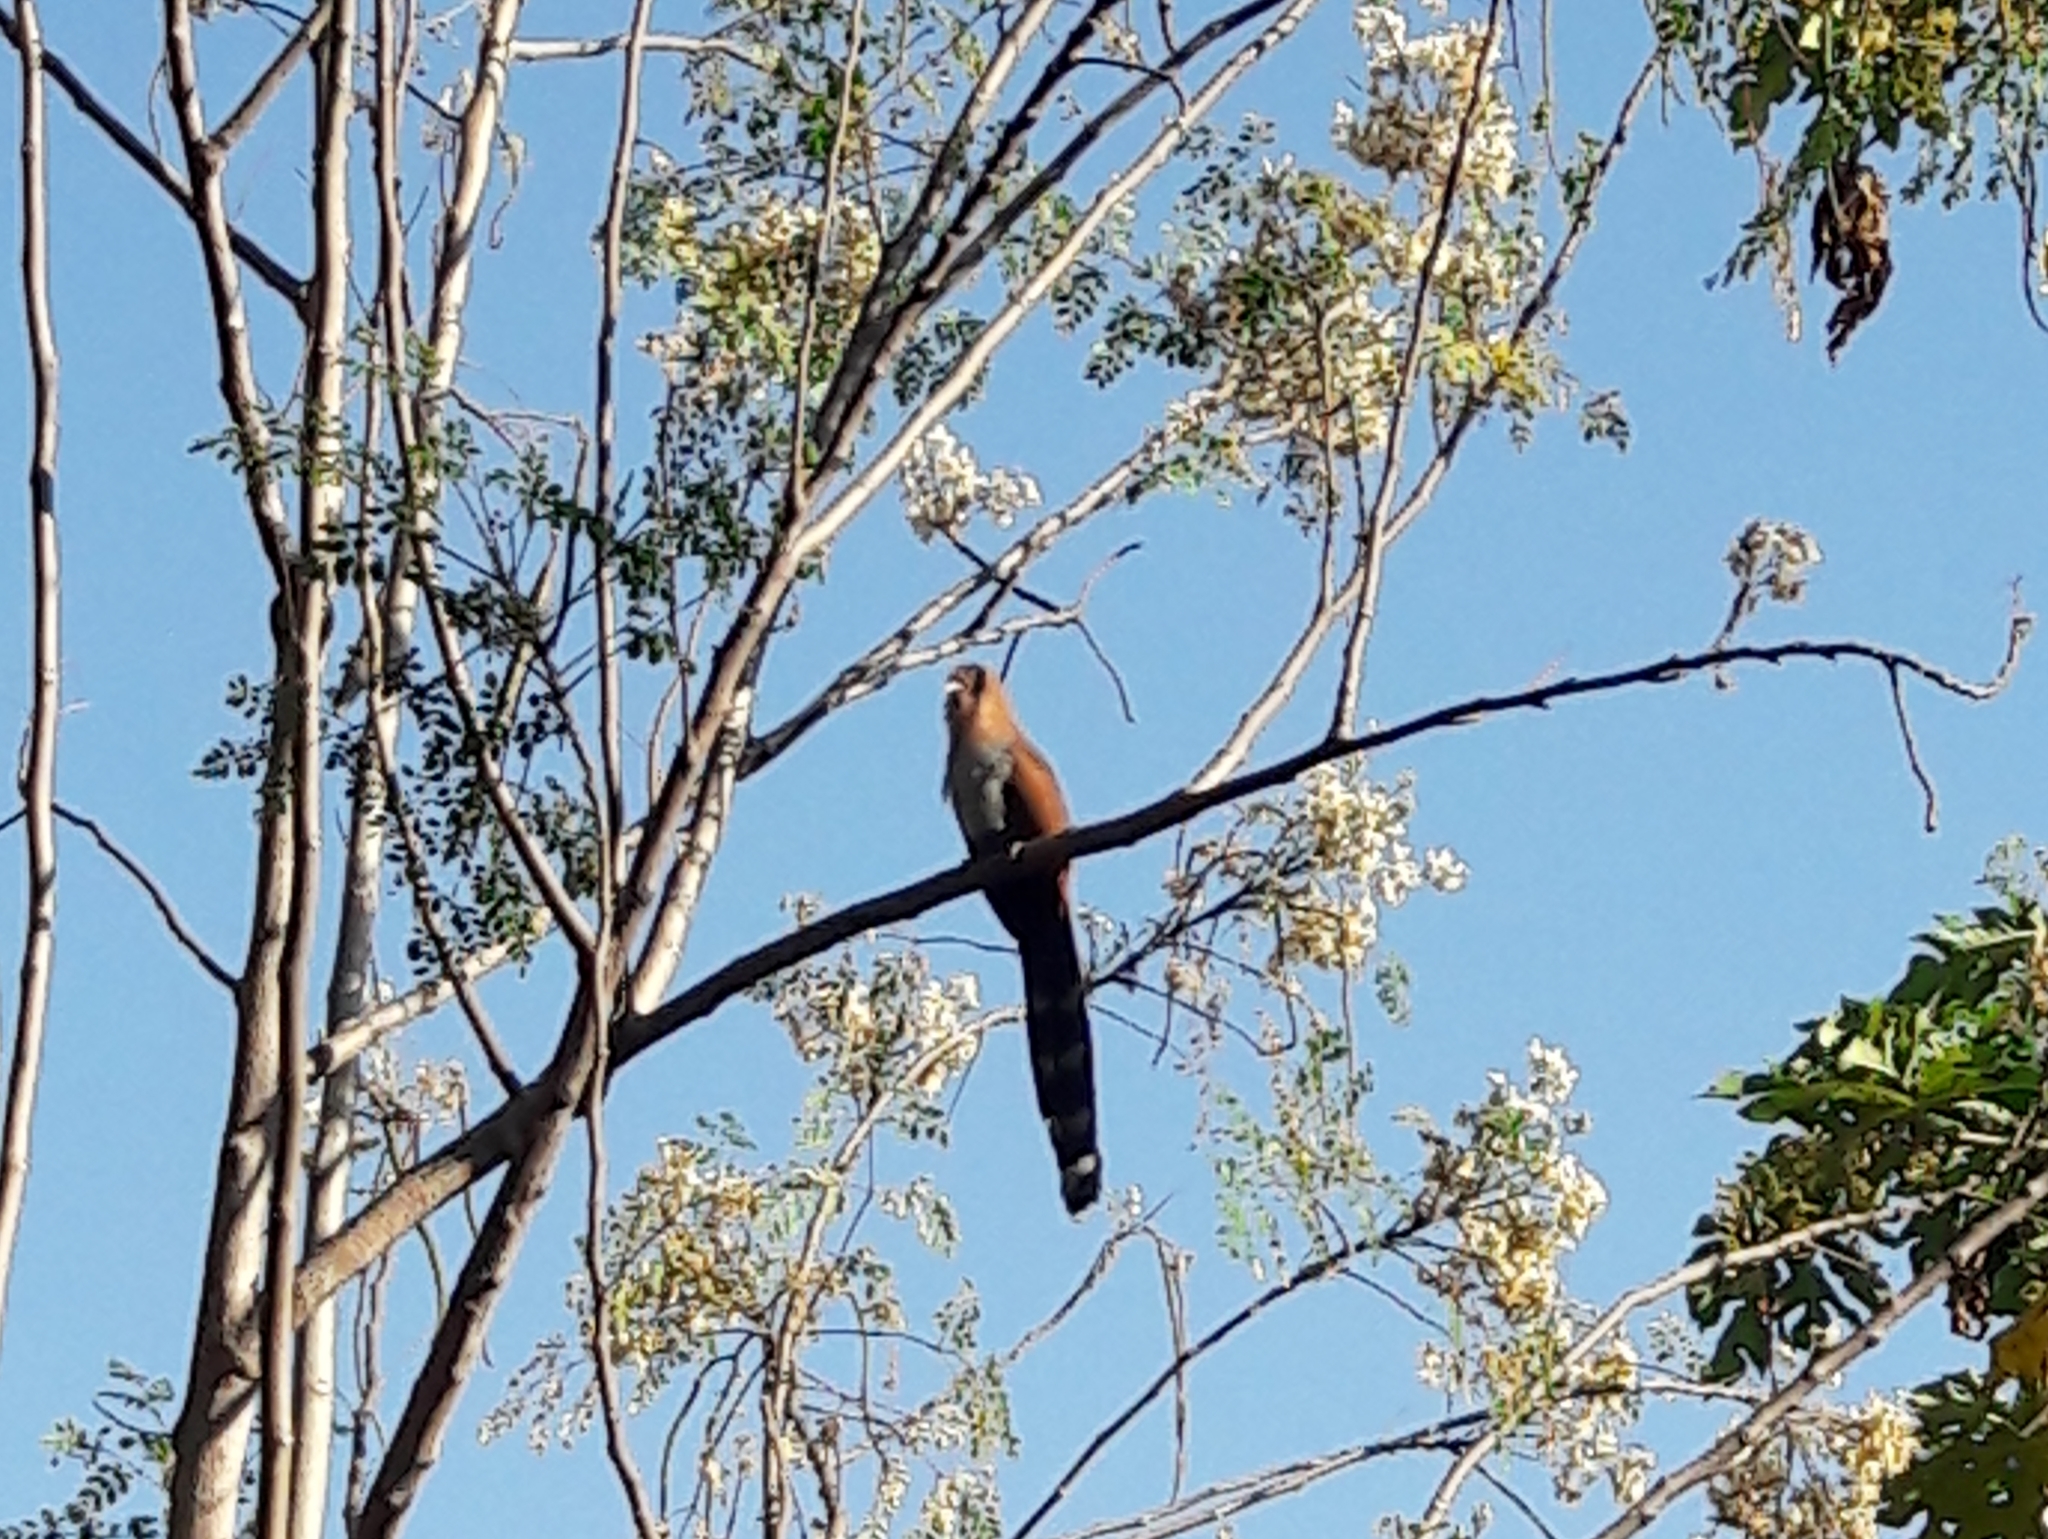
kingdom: Animalia
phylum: Chordata
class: Aves
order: Cuculiformes
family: Cuculidae
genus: Piaya
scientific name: Piaya cayana
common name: Squirrel cuckoo
